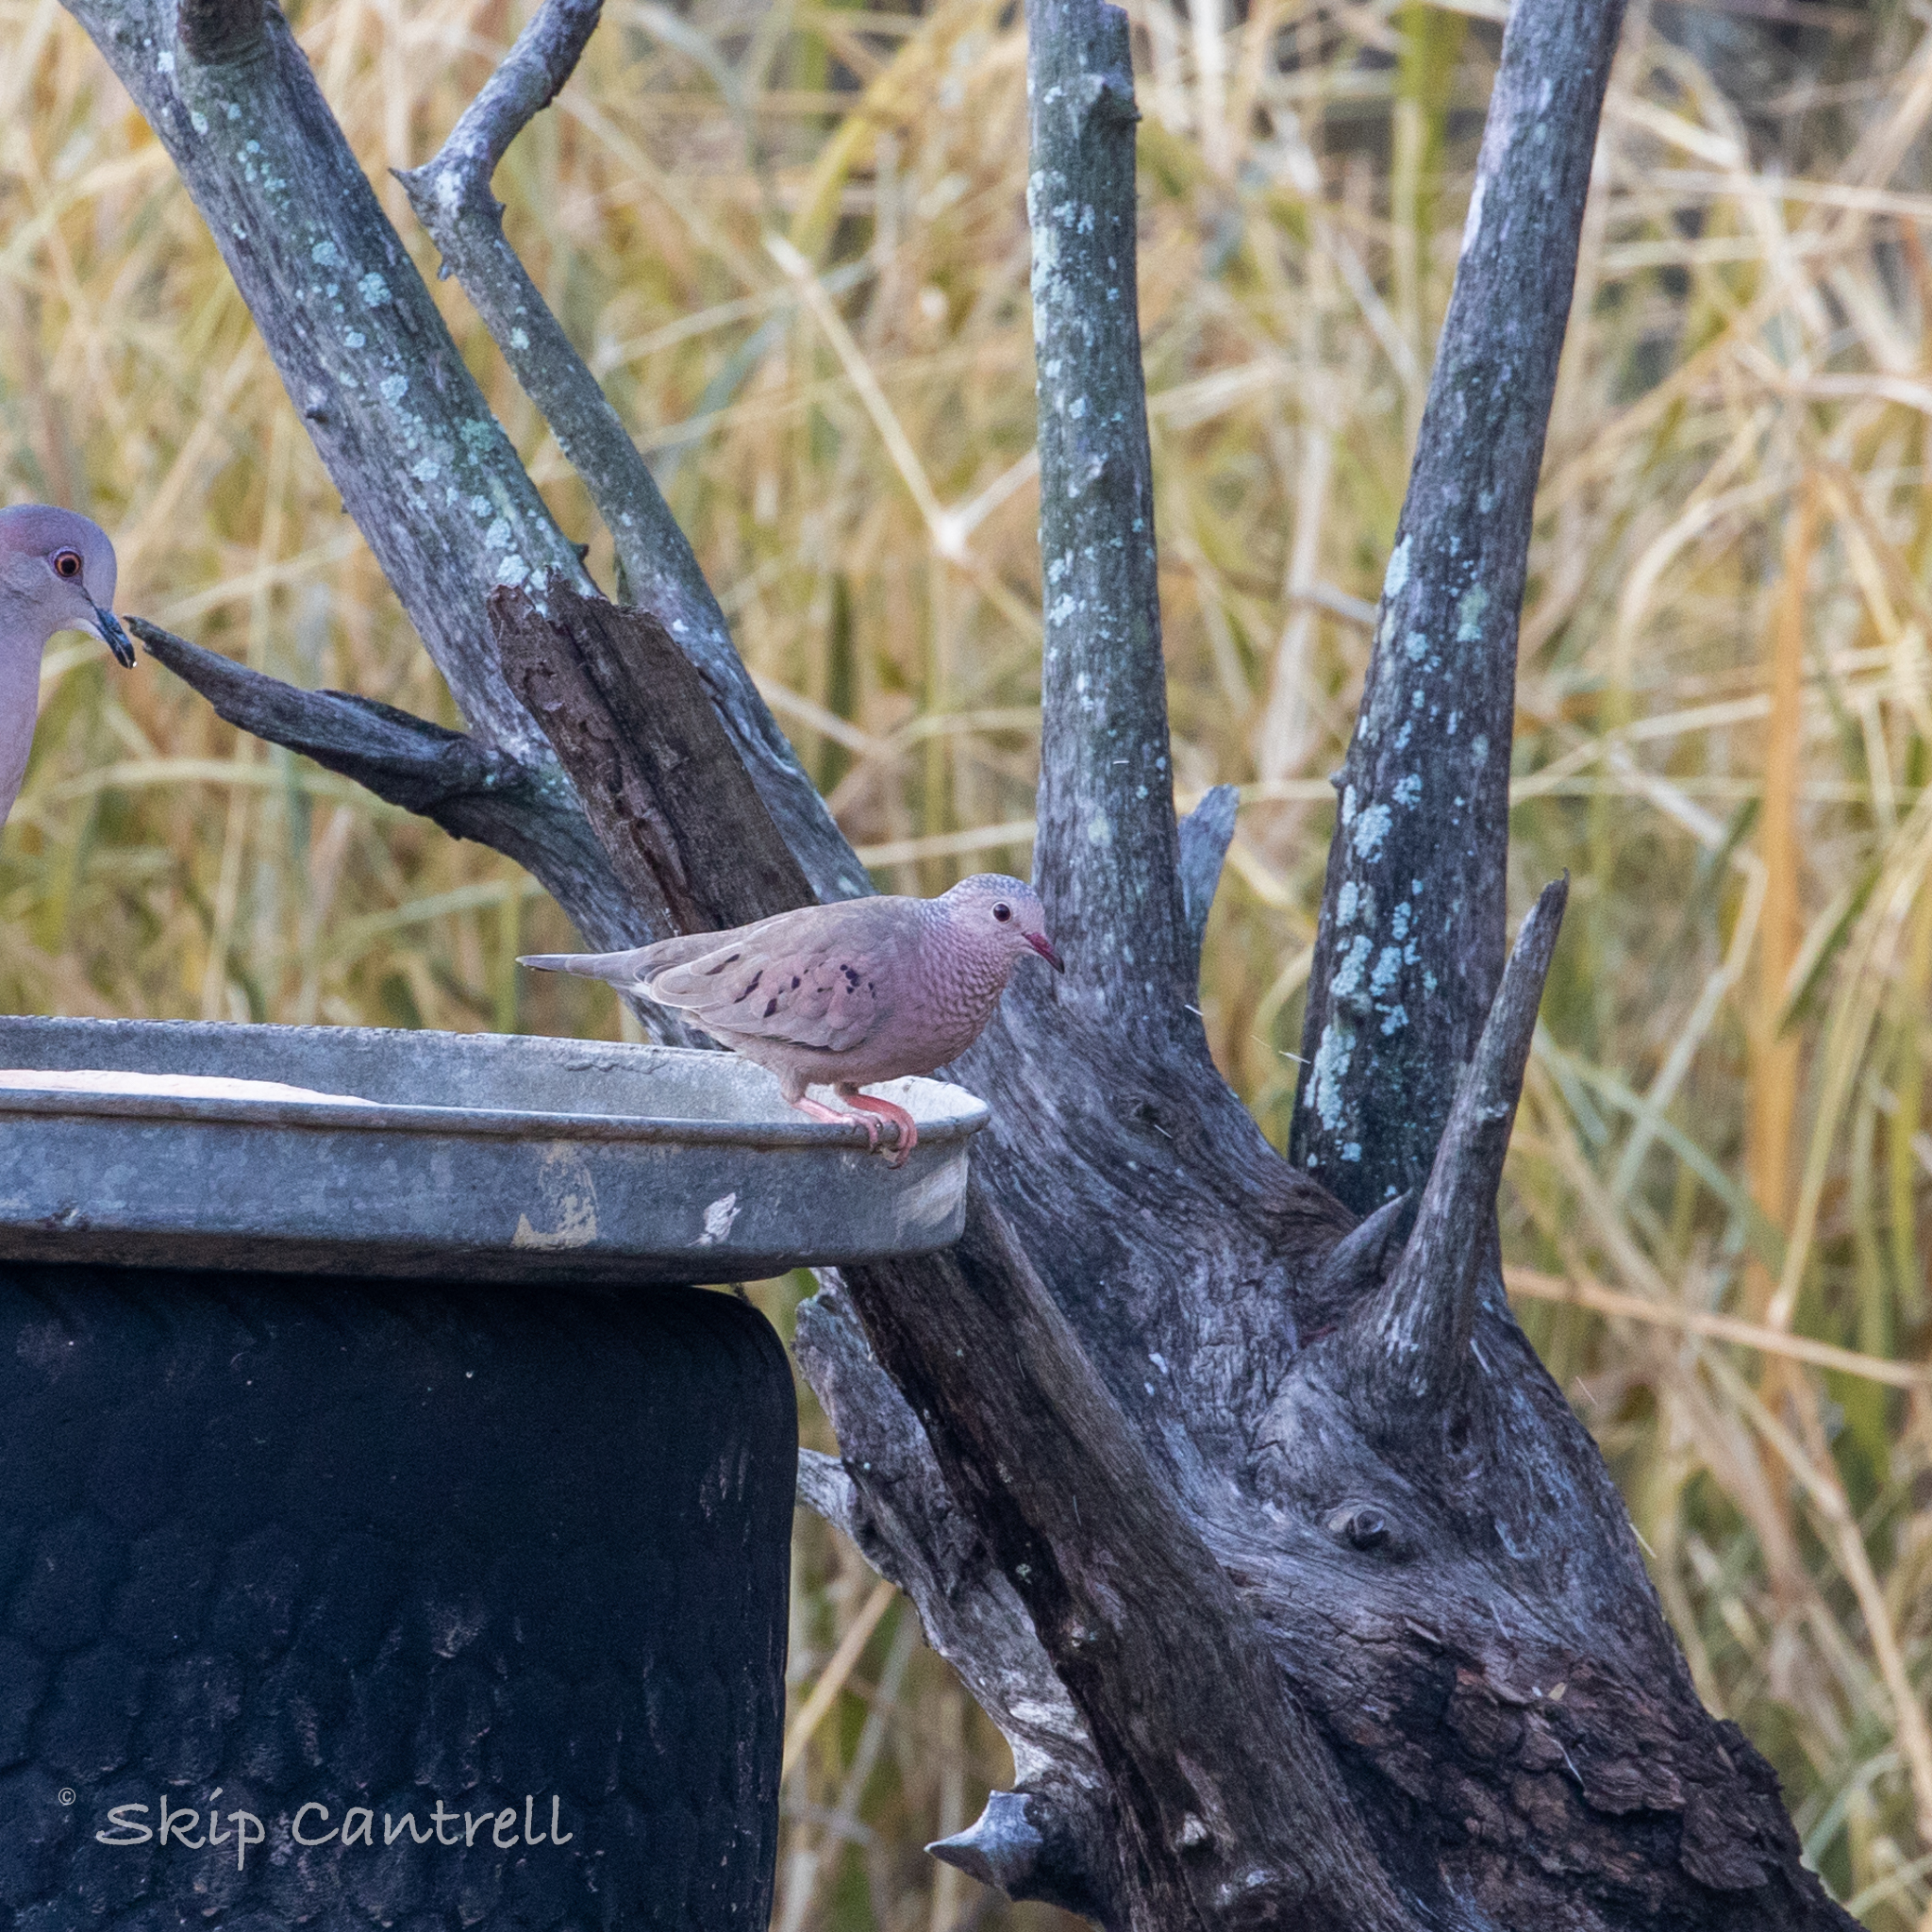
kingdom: Animalia
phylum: Chordata
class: Aves
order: Columbiformes
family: Columbidae
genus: Columbina
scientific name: Columbina passerina
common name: Common ground-dove
